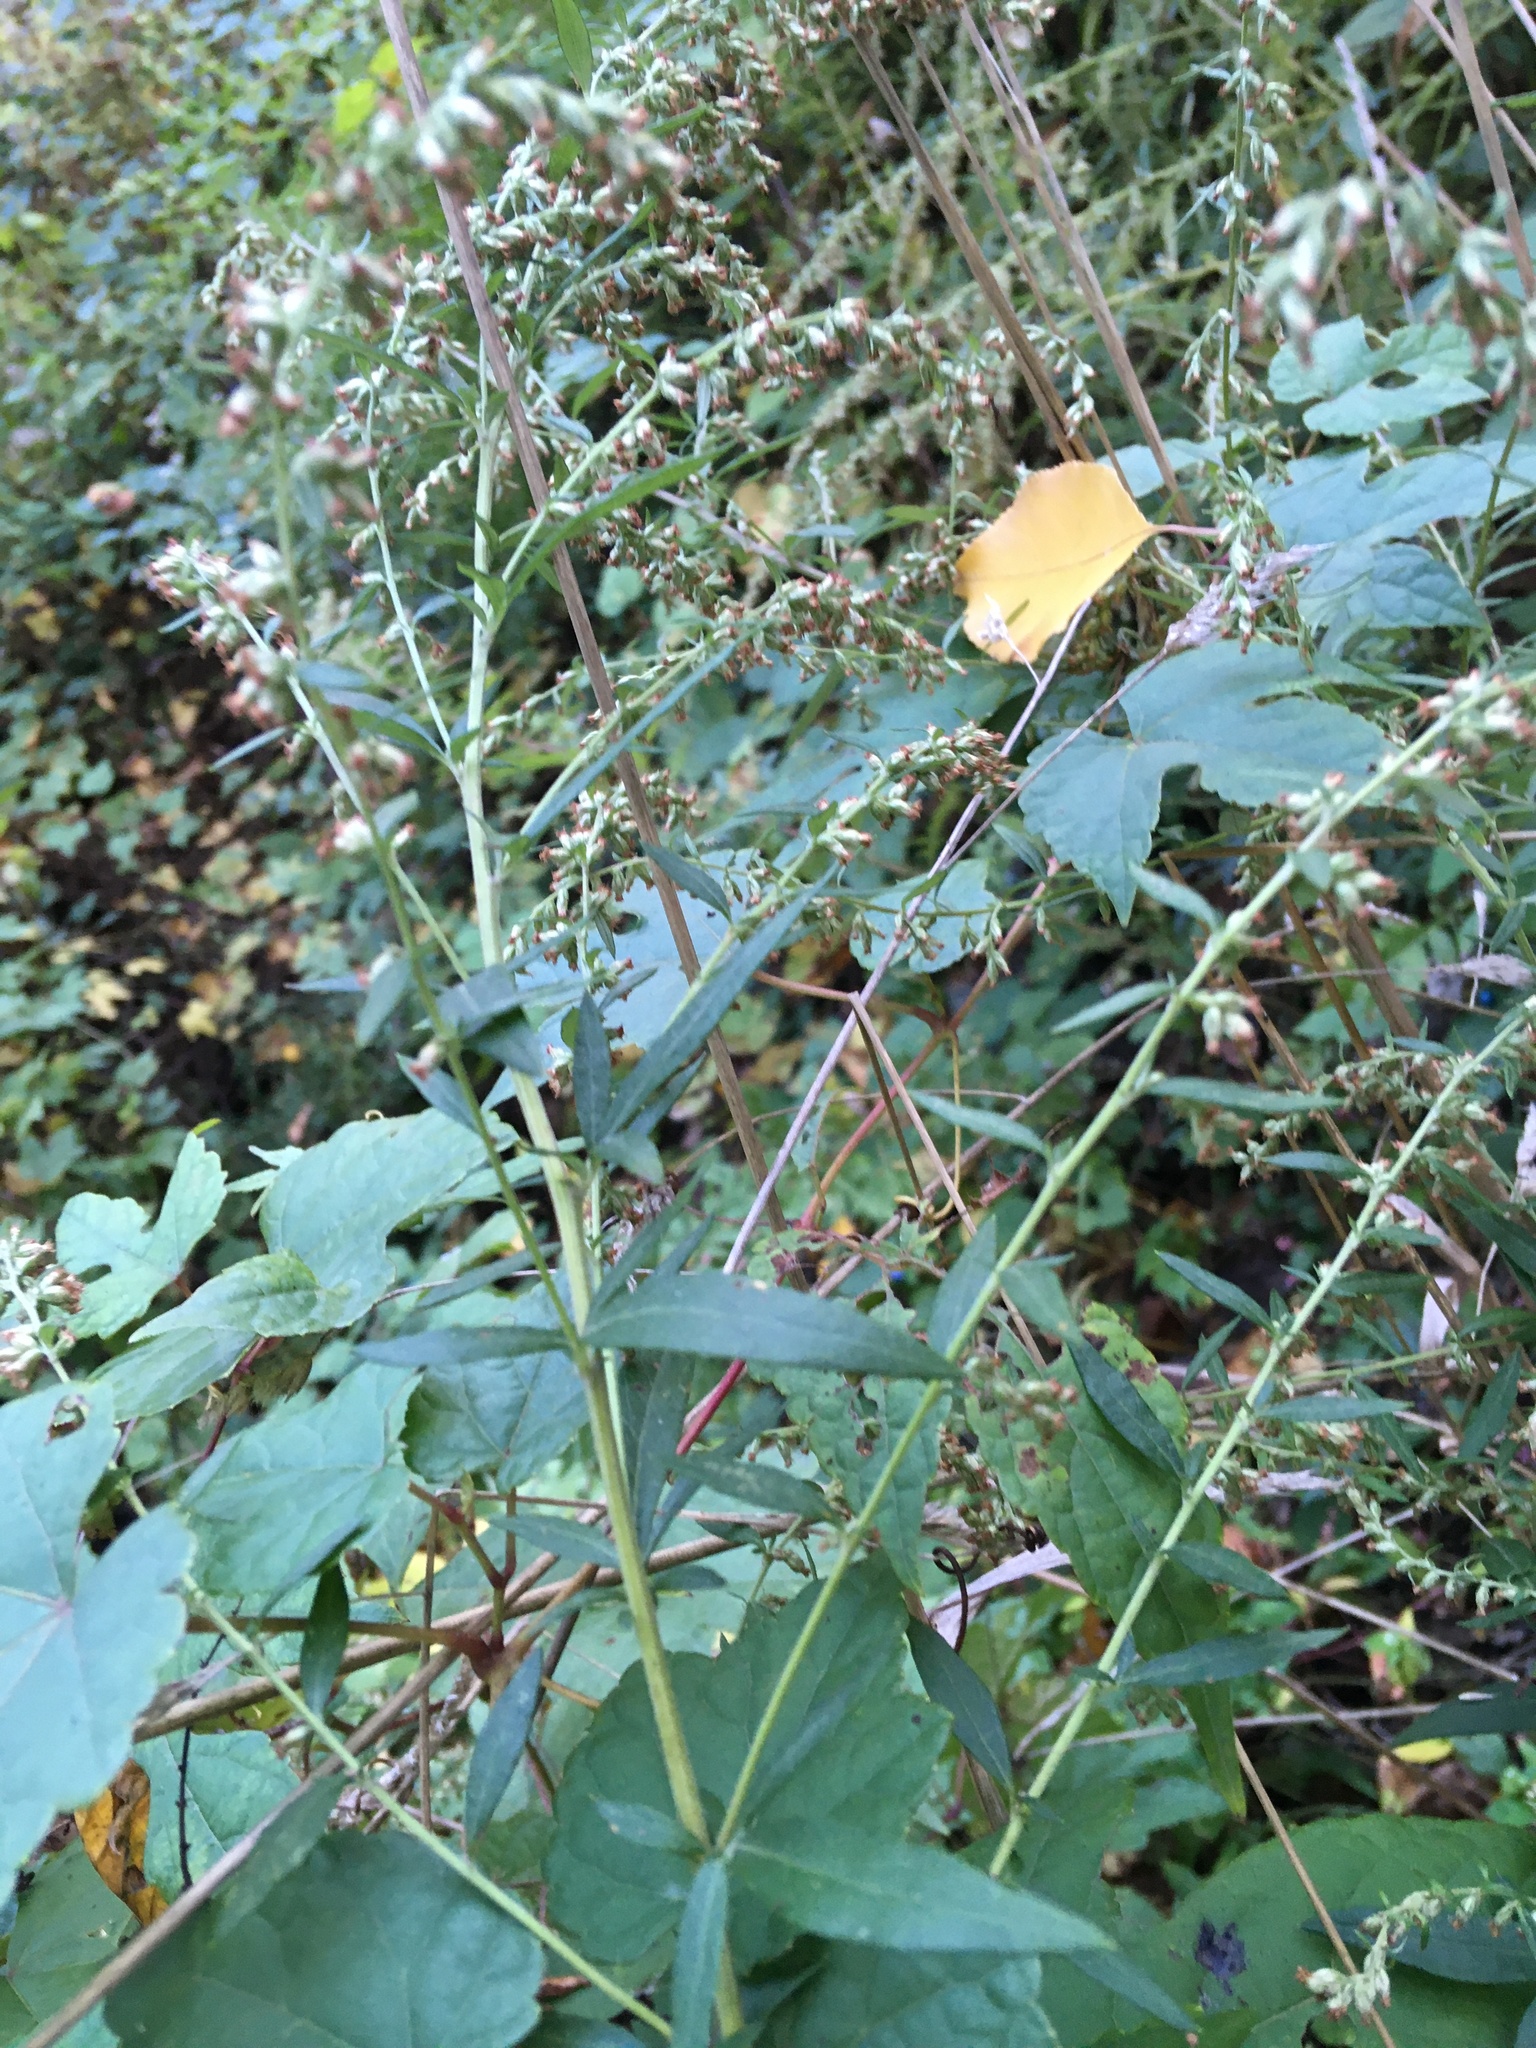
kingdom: Plantae
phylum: Tracheophyta
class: Magnoliopsida
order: Asterales
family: Asteraceae
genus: Artemisia
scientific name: Artemisia vulgaris
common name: Mugwort
